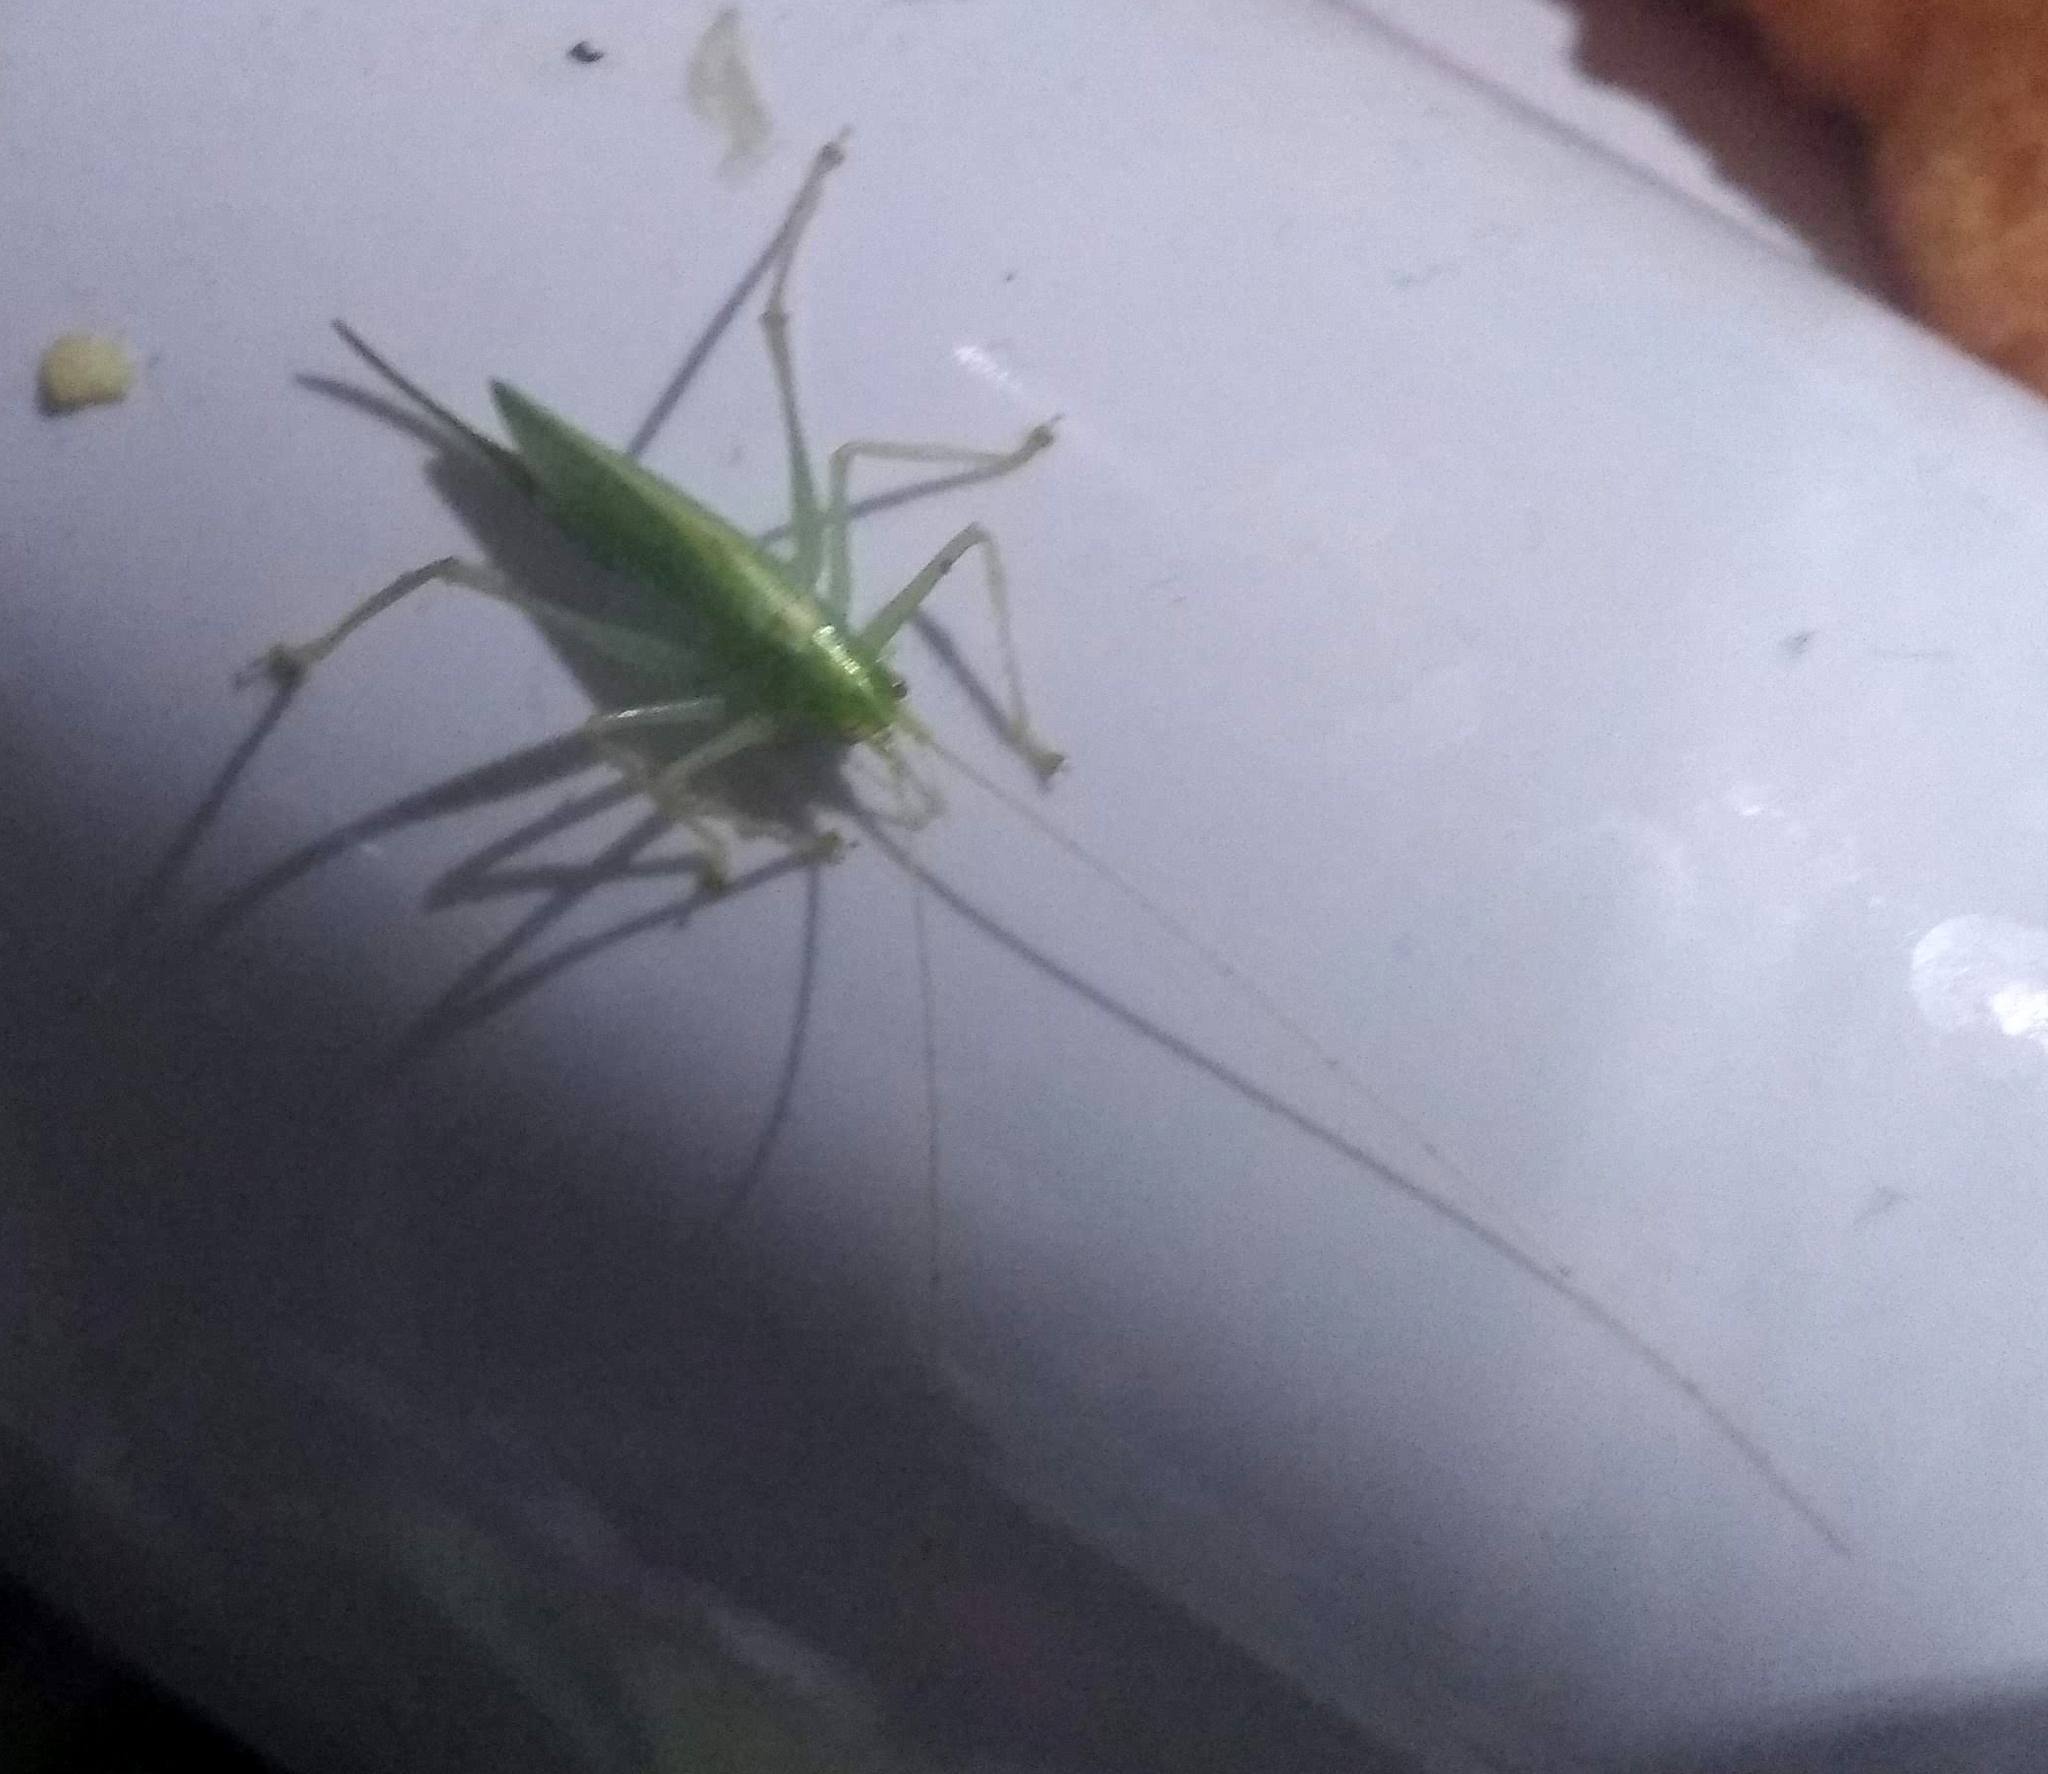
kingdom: Animalia
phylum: Arthropoda
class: Insecta
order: Orthoptera
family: Tettigoniidae
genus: Meconema
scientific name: Meconema thalassinum
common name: Oak bush-cricket
